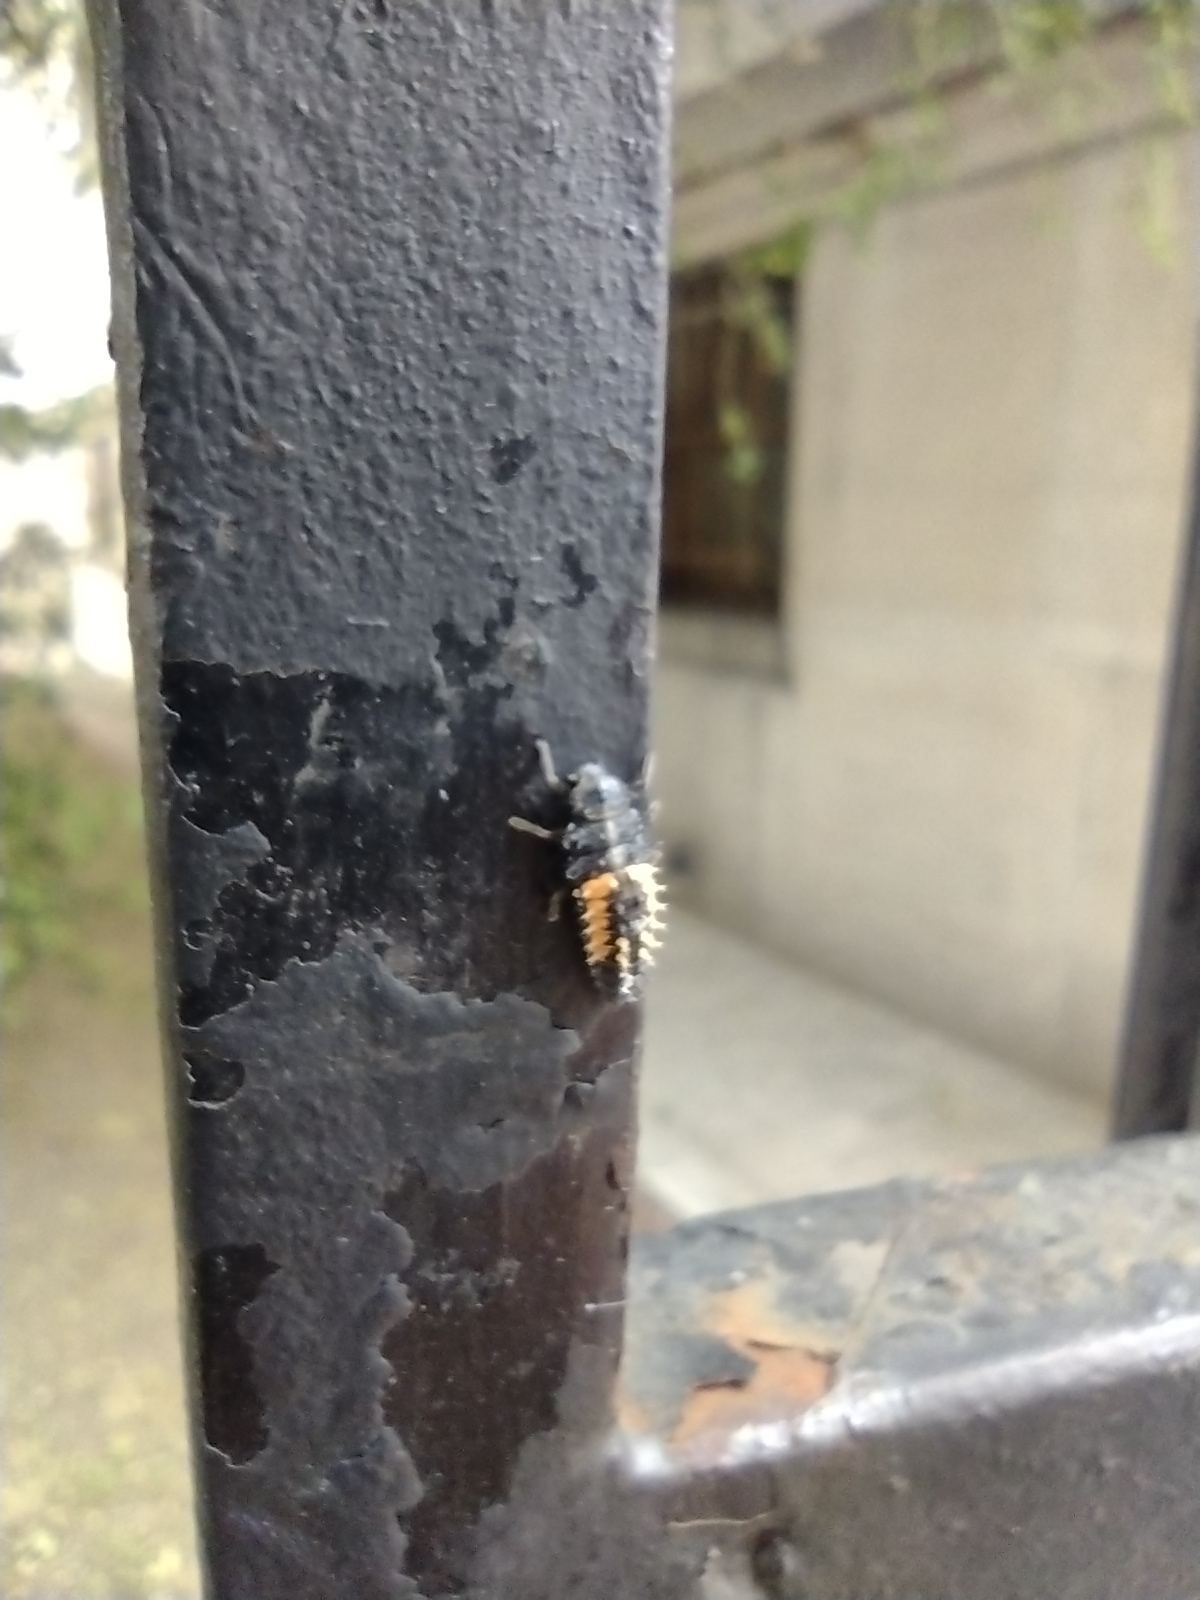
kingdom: Animalia
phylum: Arthropoda
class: Insecta
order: Coleoptera
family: Coccinellidae
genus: Harmonia
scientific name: Harmonia axyridis
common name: Harlequin ladybird
